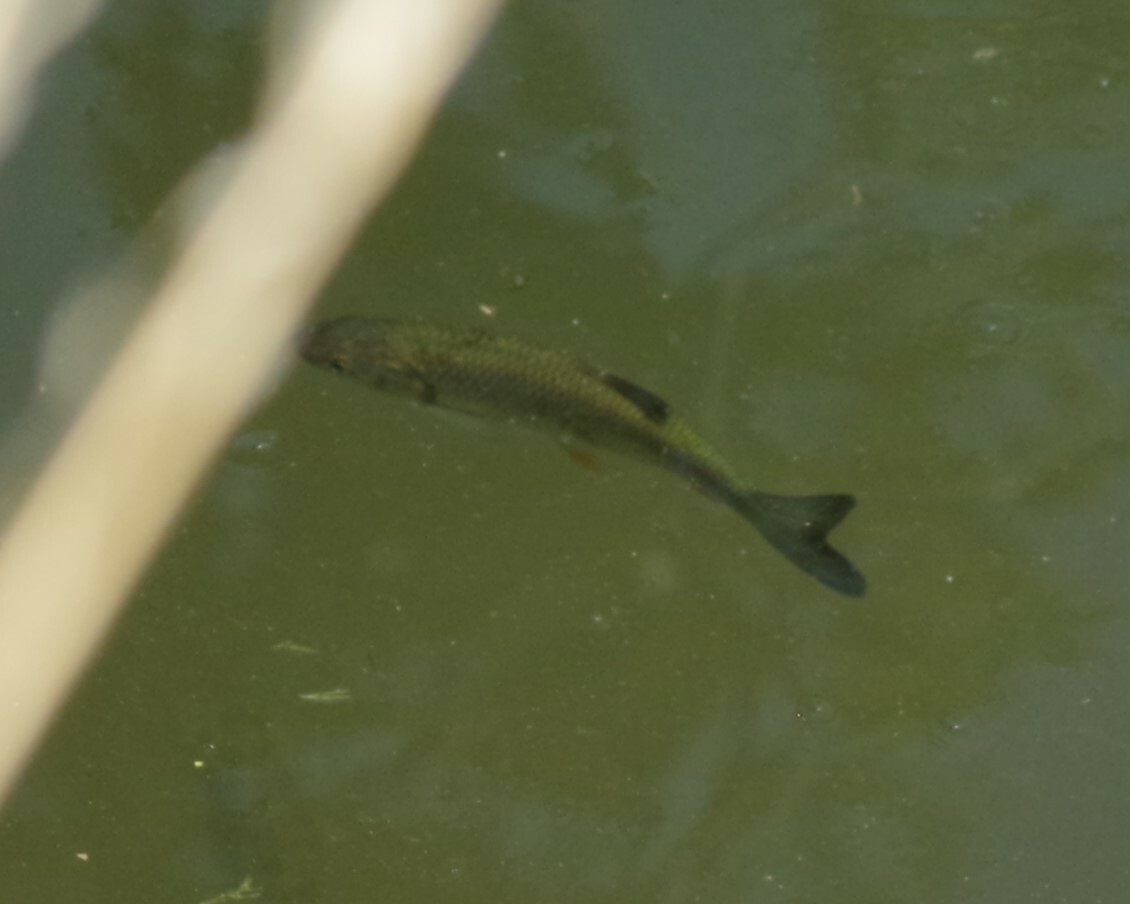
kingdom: Animalia
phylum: Chordata
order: Cypriniformes
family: Cyprinidae
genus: Squalius
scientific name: Squalius cephalus
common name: Chub
